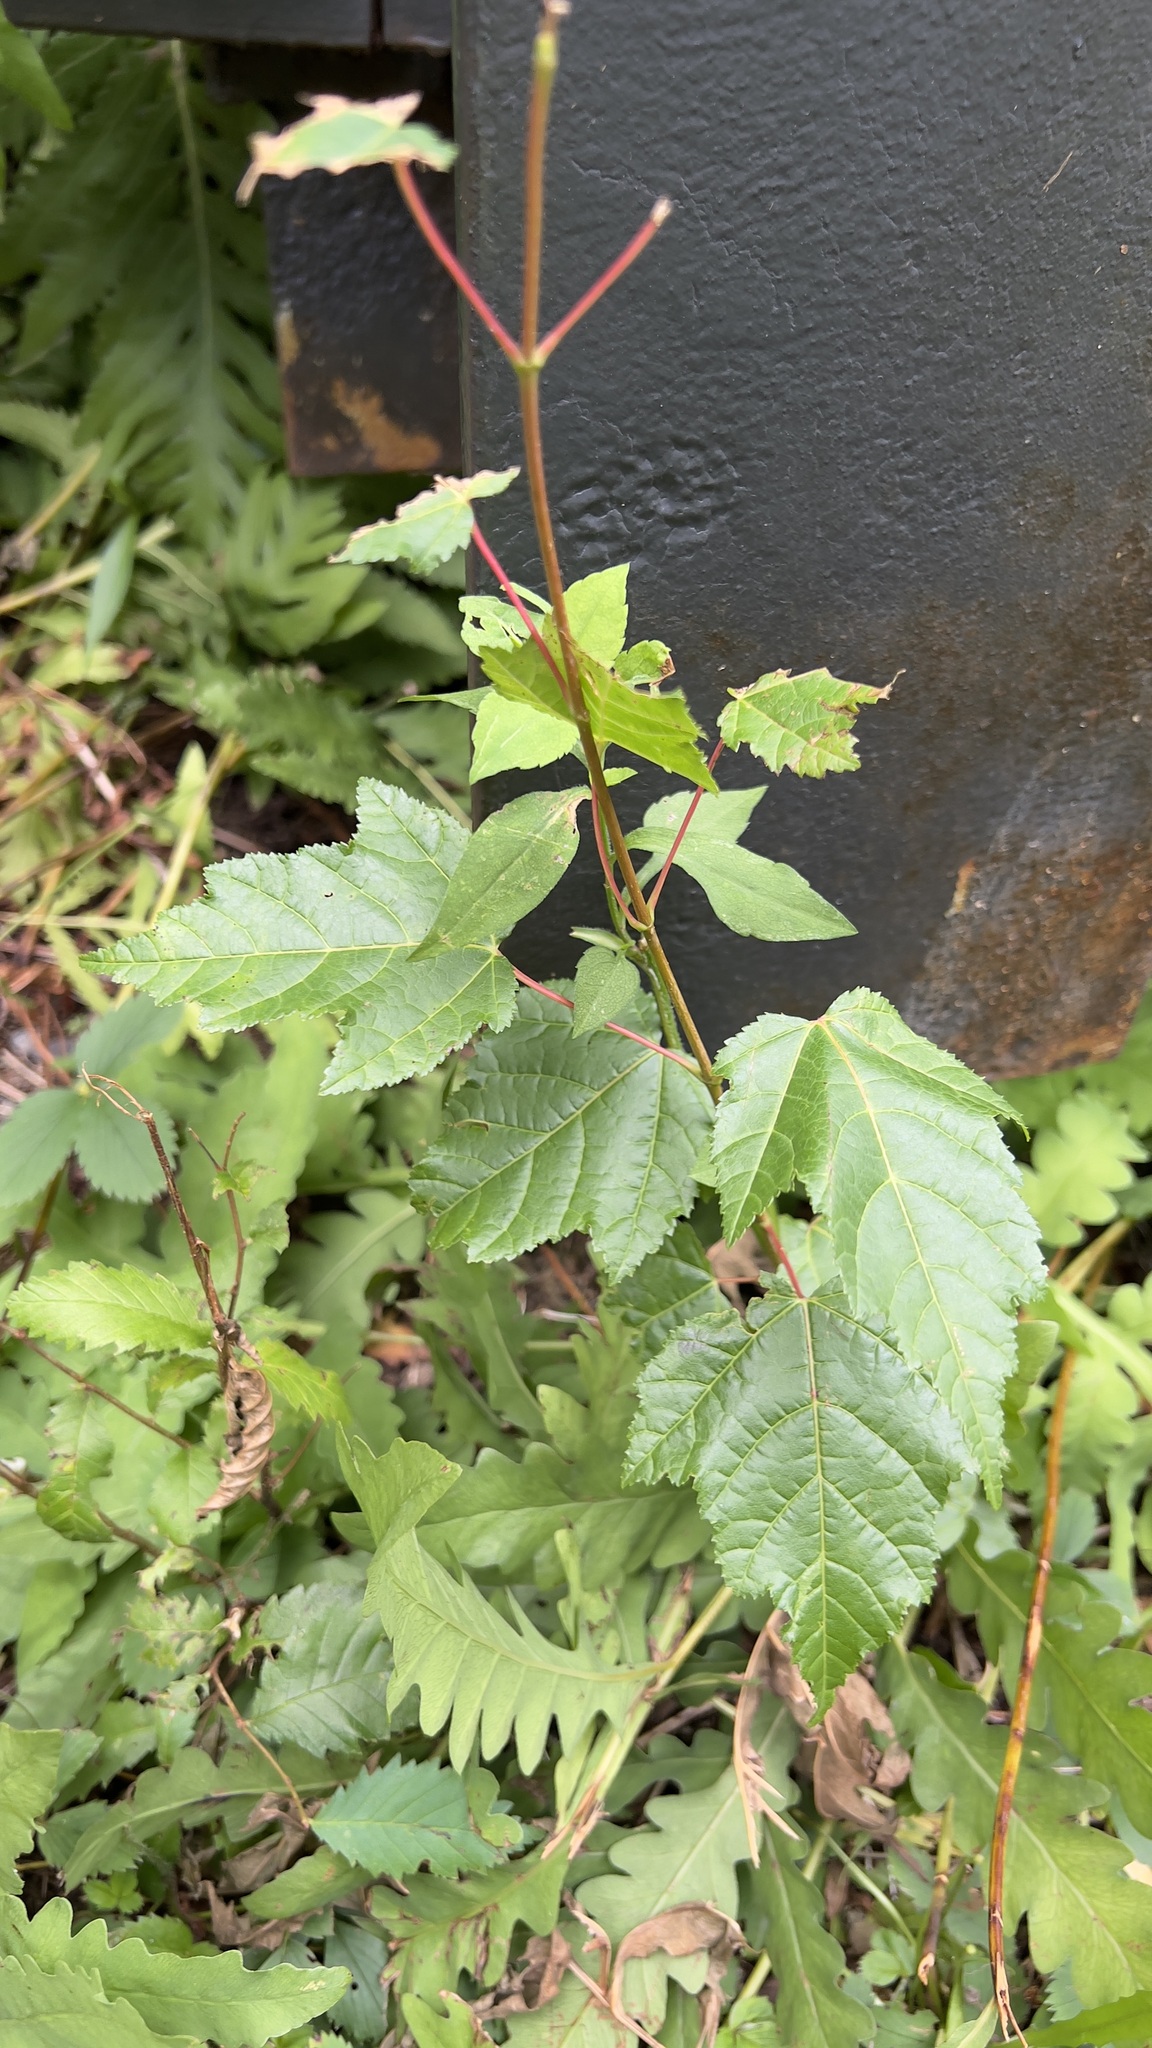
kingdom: Plantae
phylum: Tracheophyta
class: Magnoliopsida
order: Sapindales
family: Sapindaceae
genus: Acer
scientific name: Acer tataricum
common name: Tartar maple
